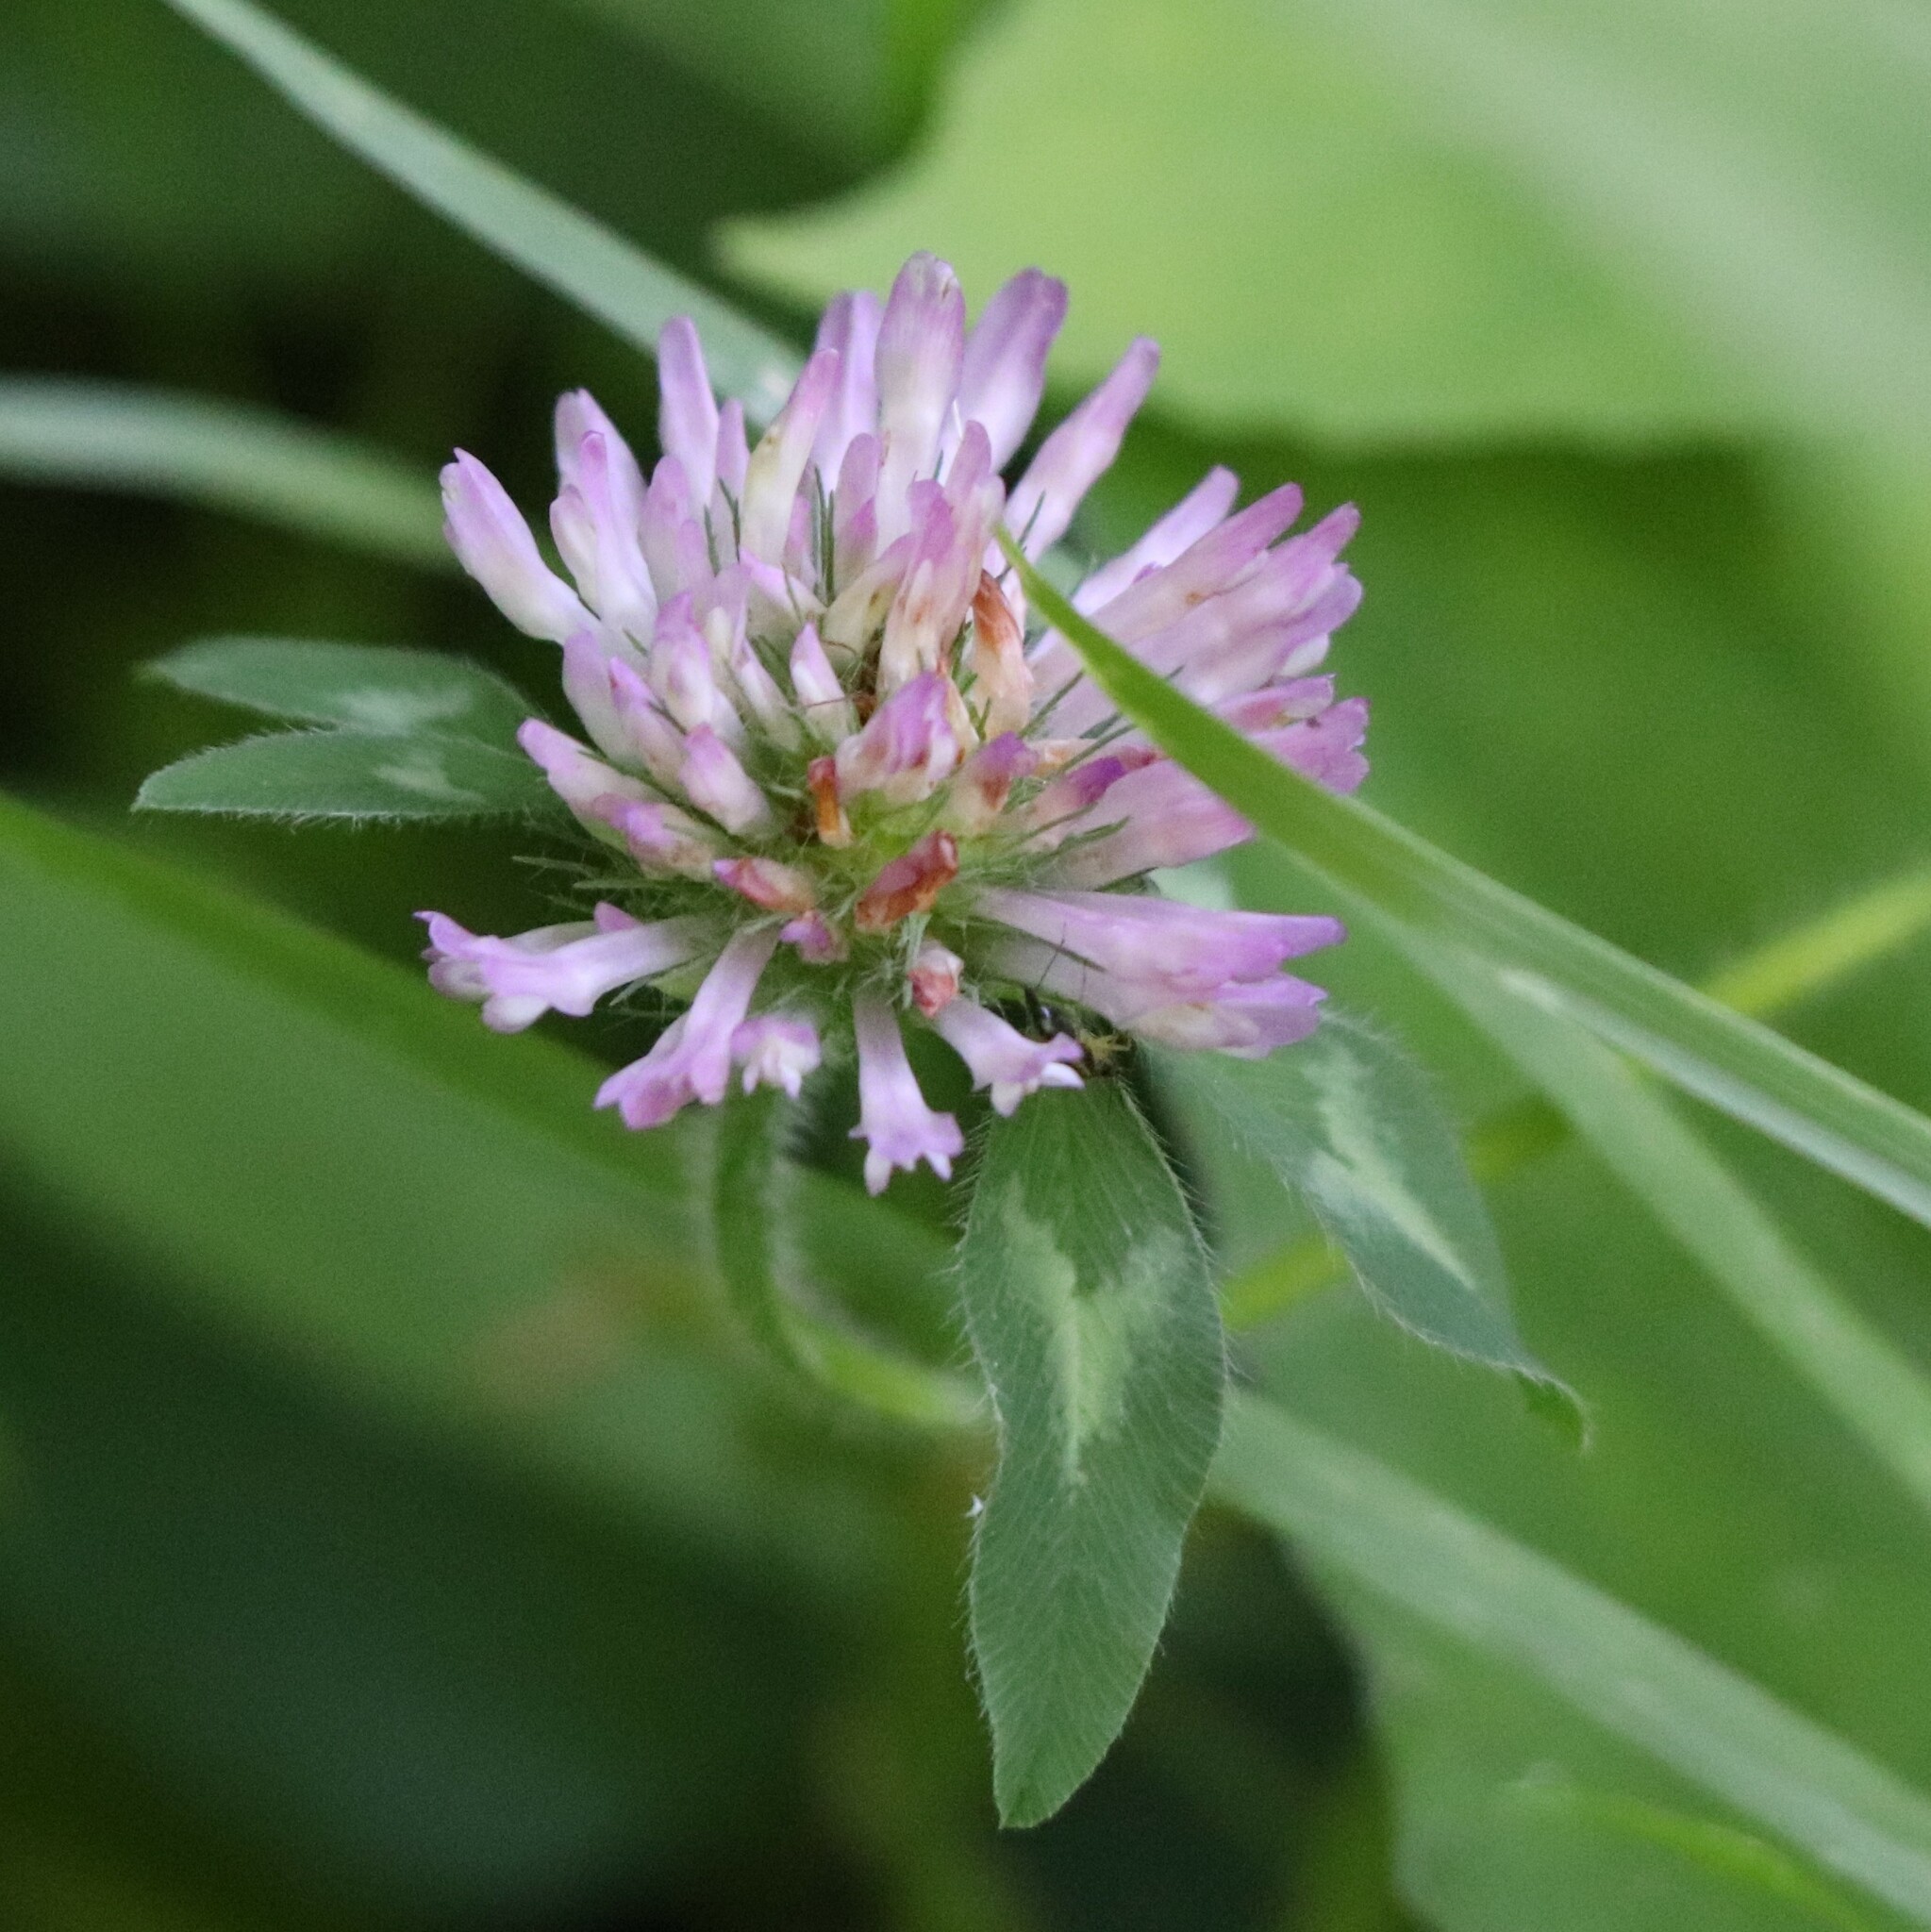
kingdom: Plantae
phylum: Tracheophyta
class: Magnoliopsida
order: Fabales
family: Fabaceae
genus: Trifolium
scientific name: Trifolium pratense
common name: Red clover
